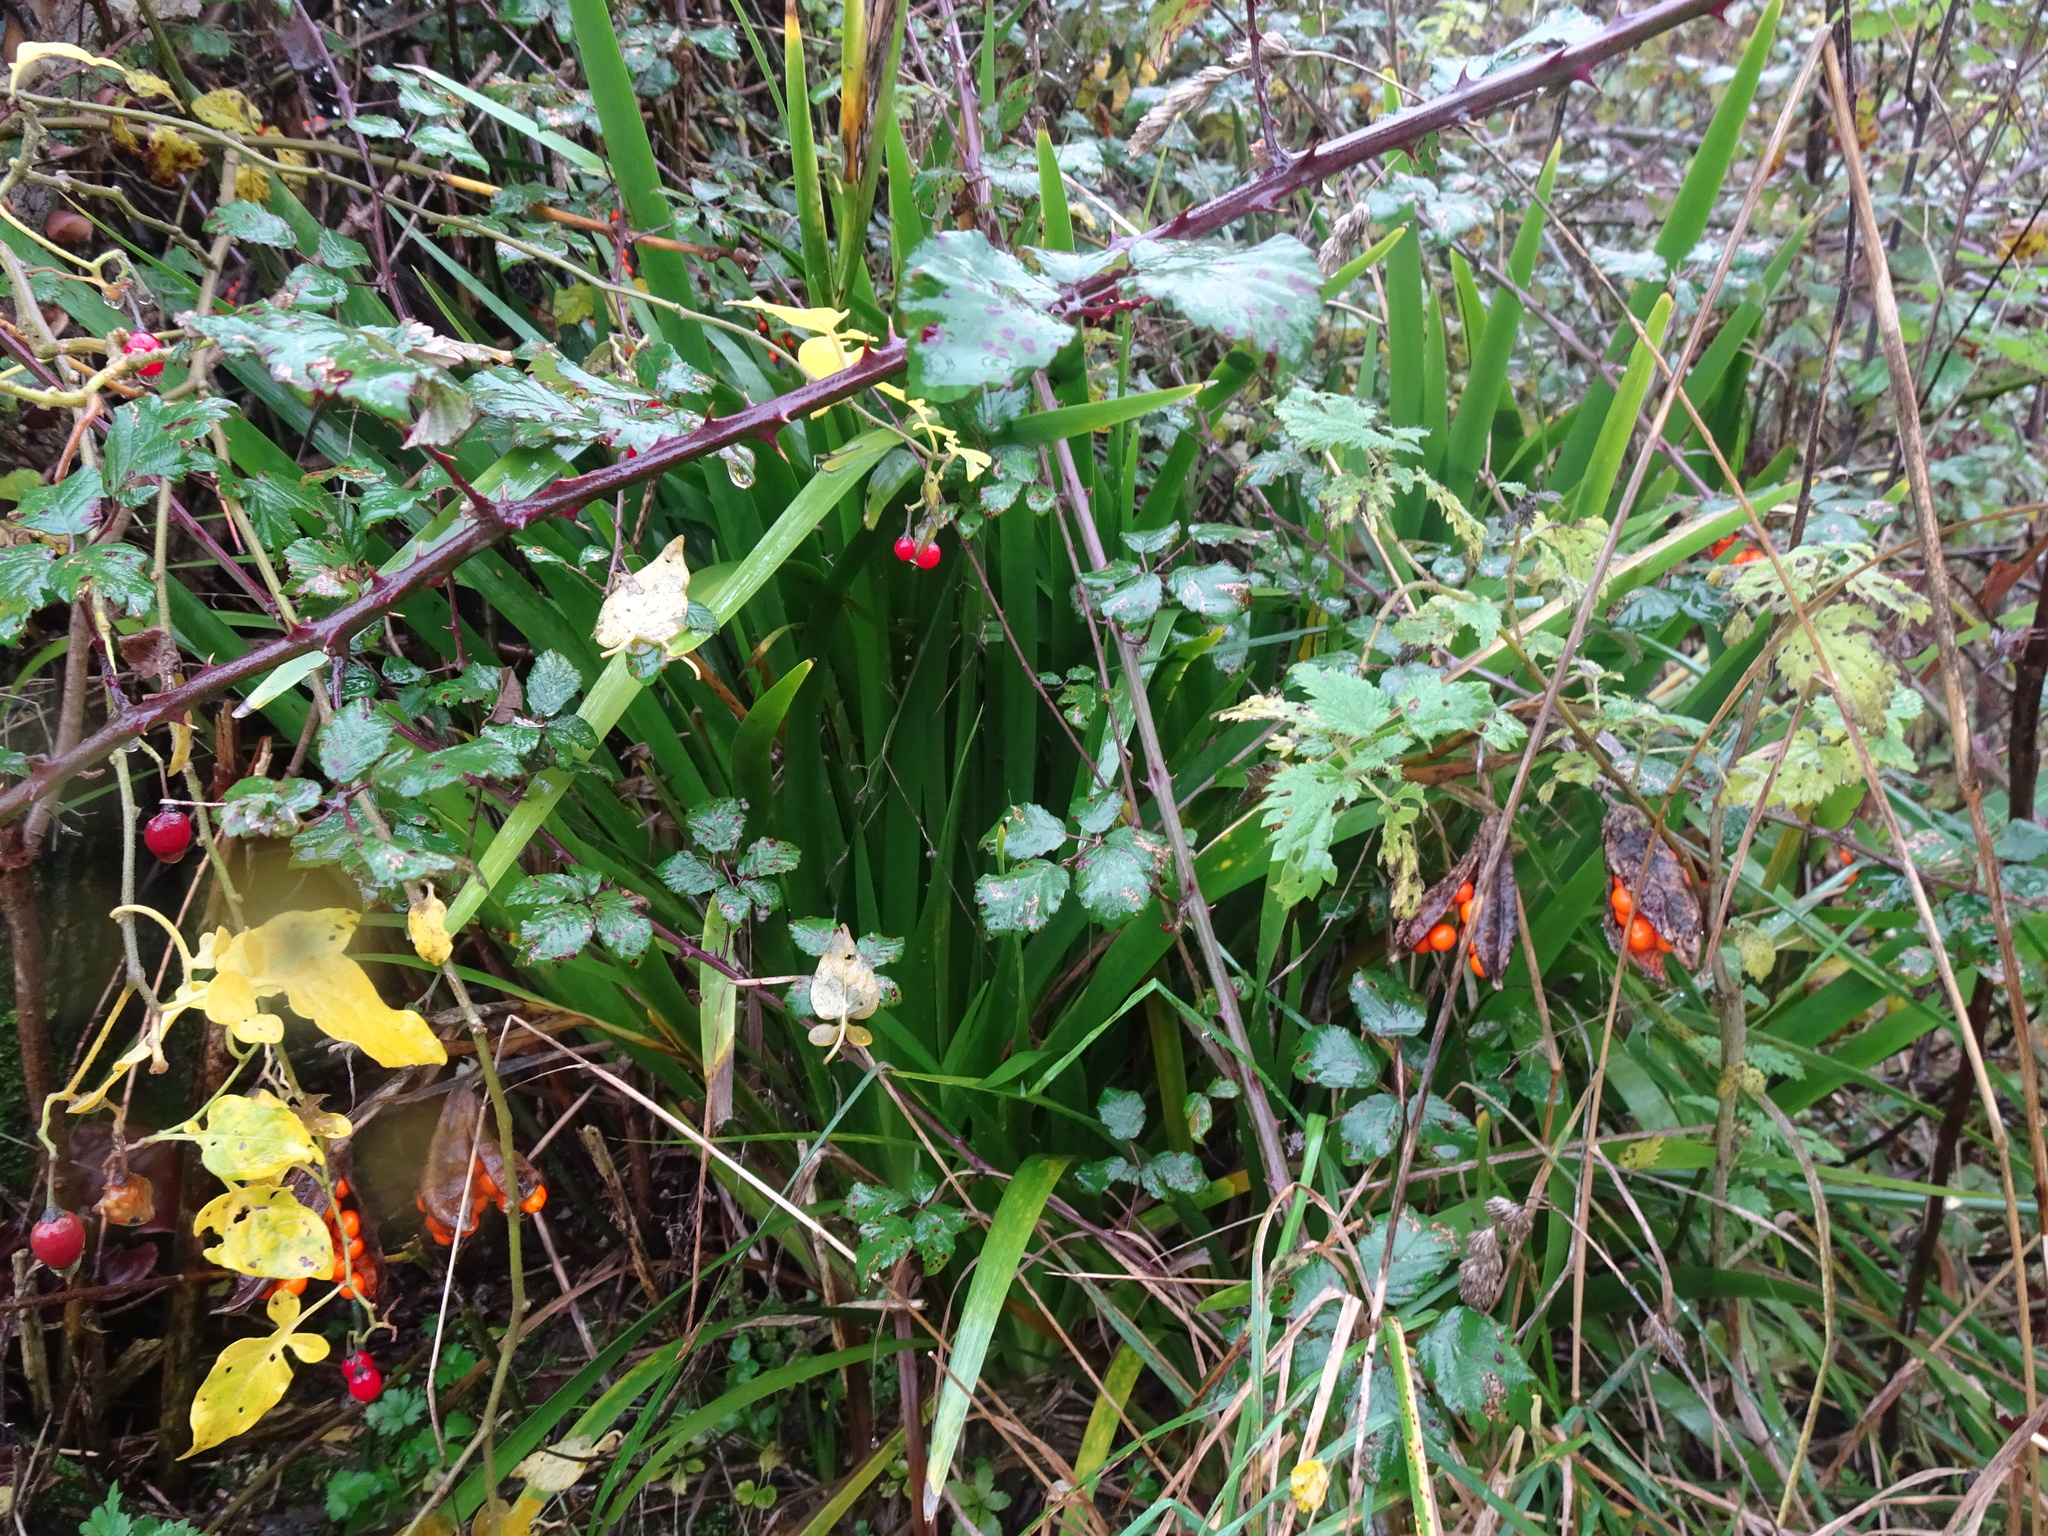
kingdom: Plantae
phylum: Tracheophyta
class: Liliopsida
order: Asparagales
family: Iridaceae
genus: Iris
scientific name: Iris foetidissima
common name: Stinking iris
